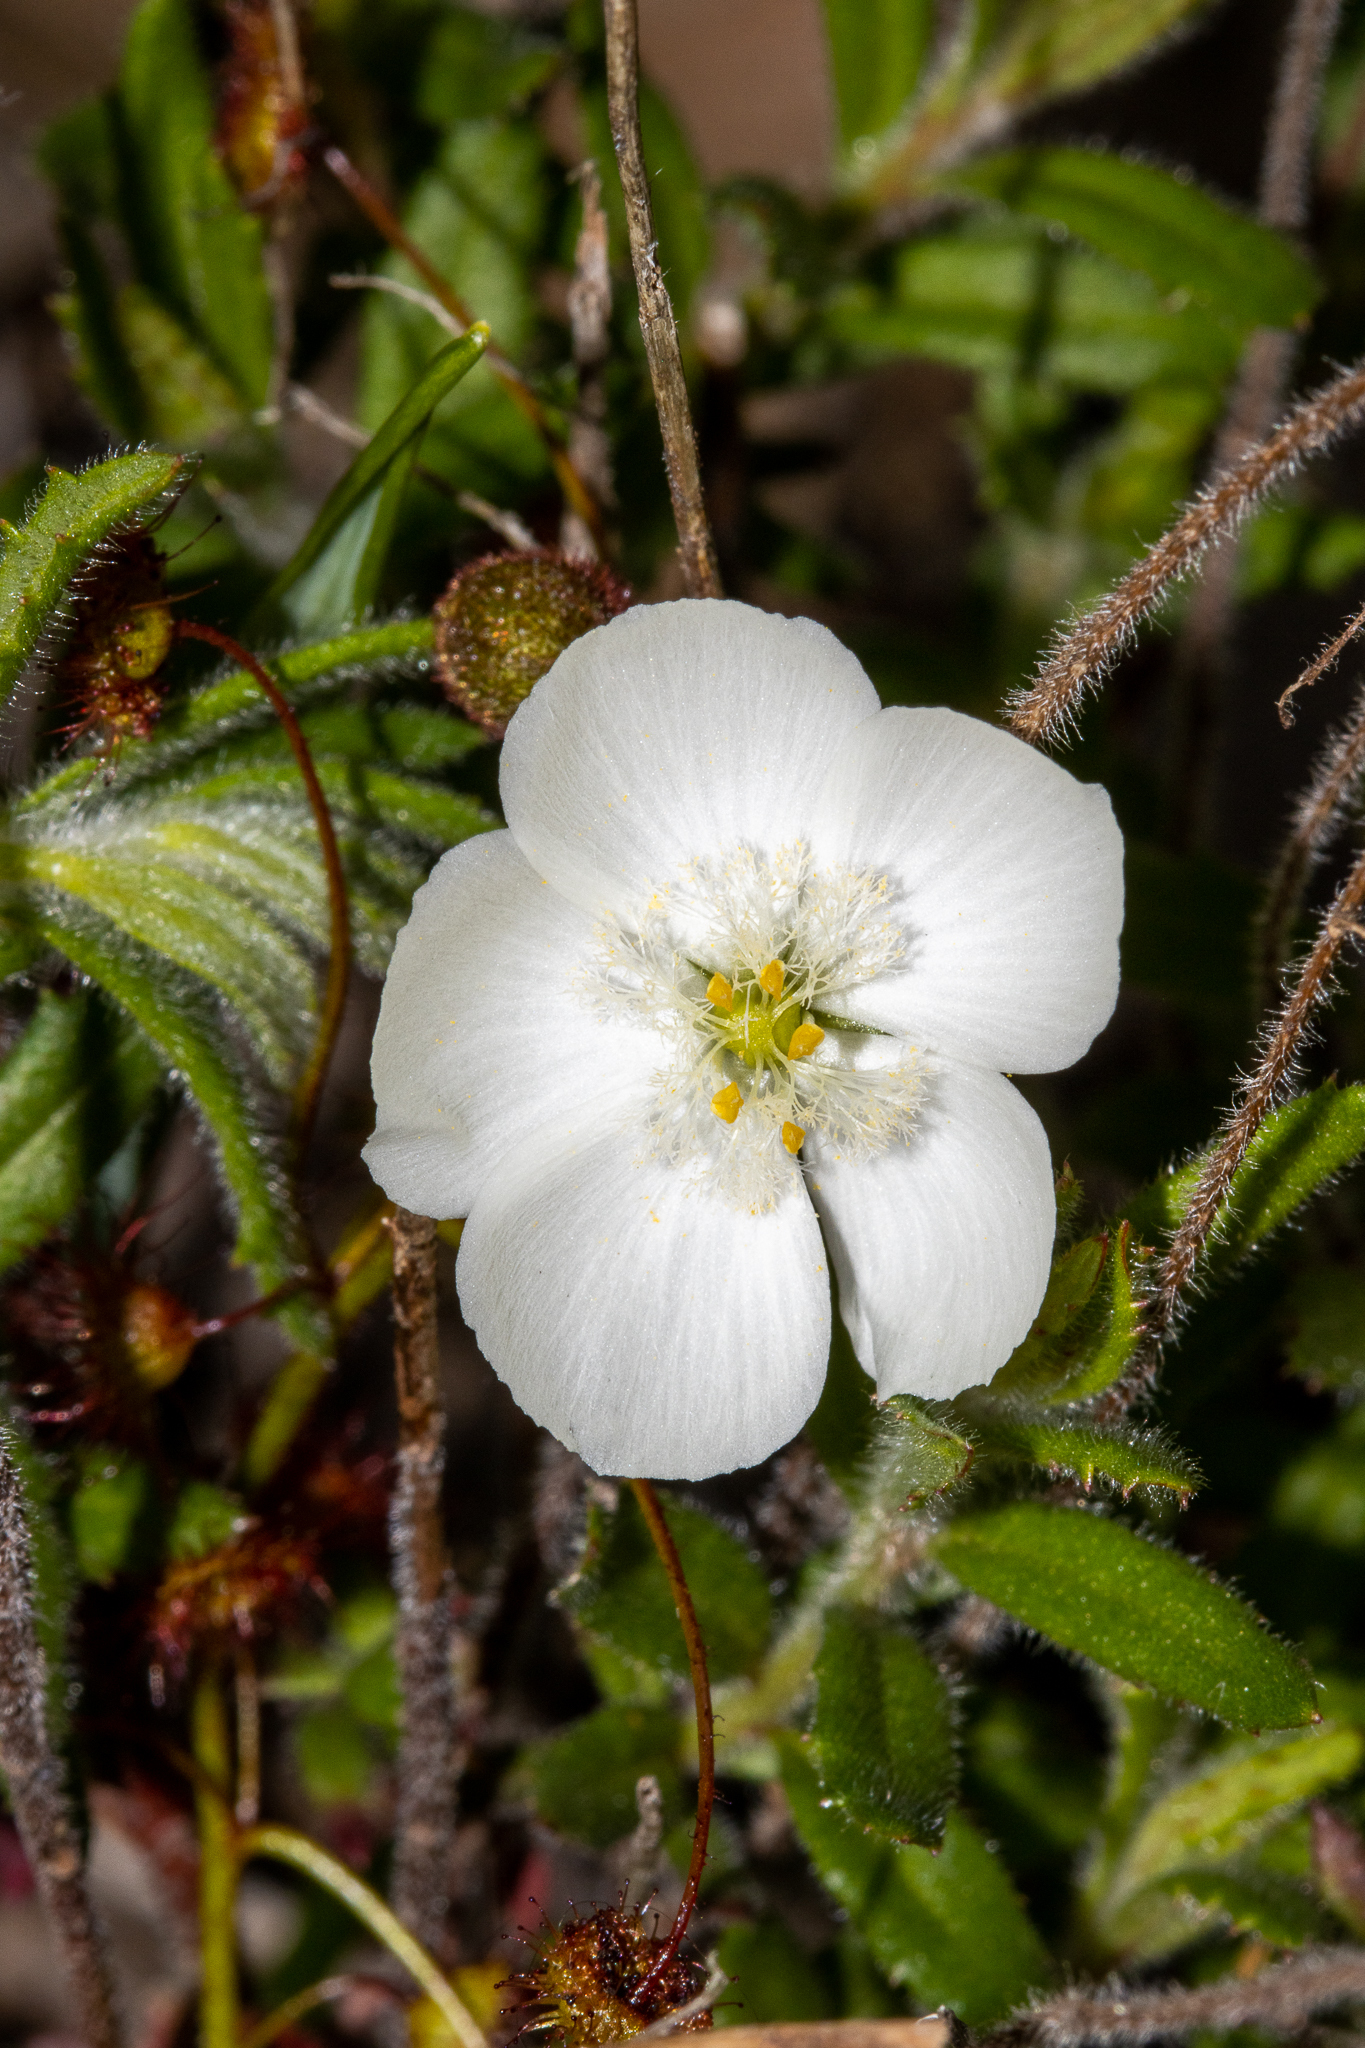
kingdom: Plantae
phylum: Tracheophyta
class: Magnoliopsida
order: Caryophyllales
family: Droseraceae
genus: Drosera
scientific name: Drosera planchonii
